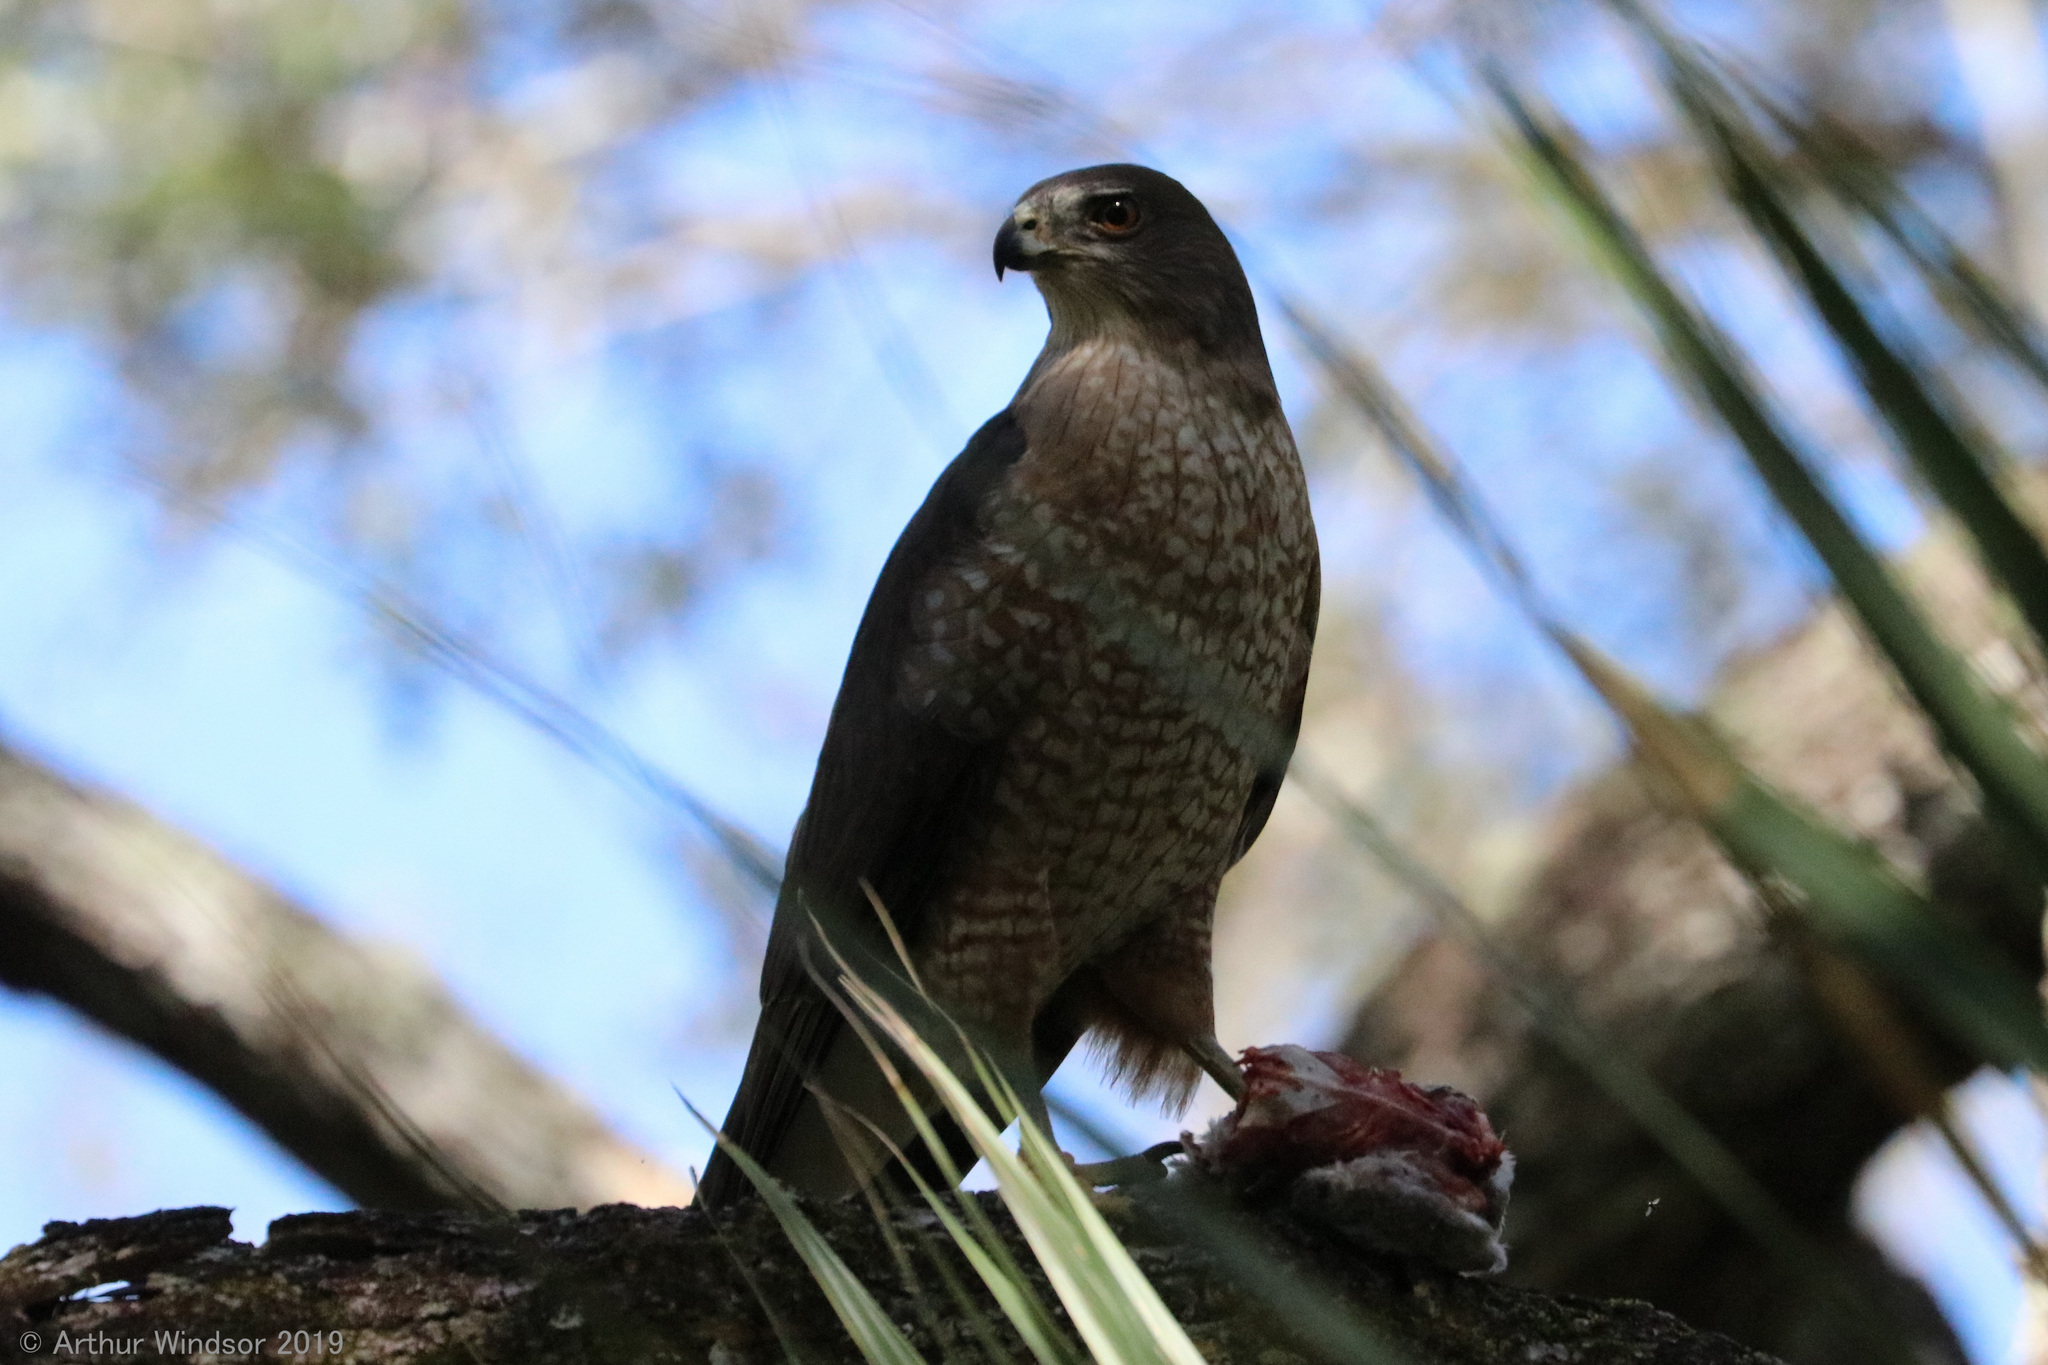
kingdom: Animalia
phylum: Chordata
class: Aves
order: Accipitriformes
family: Accipitridae
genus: Accipiter
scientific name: Accipiter cooperii
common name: Cooper's hawk
